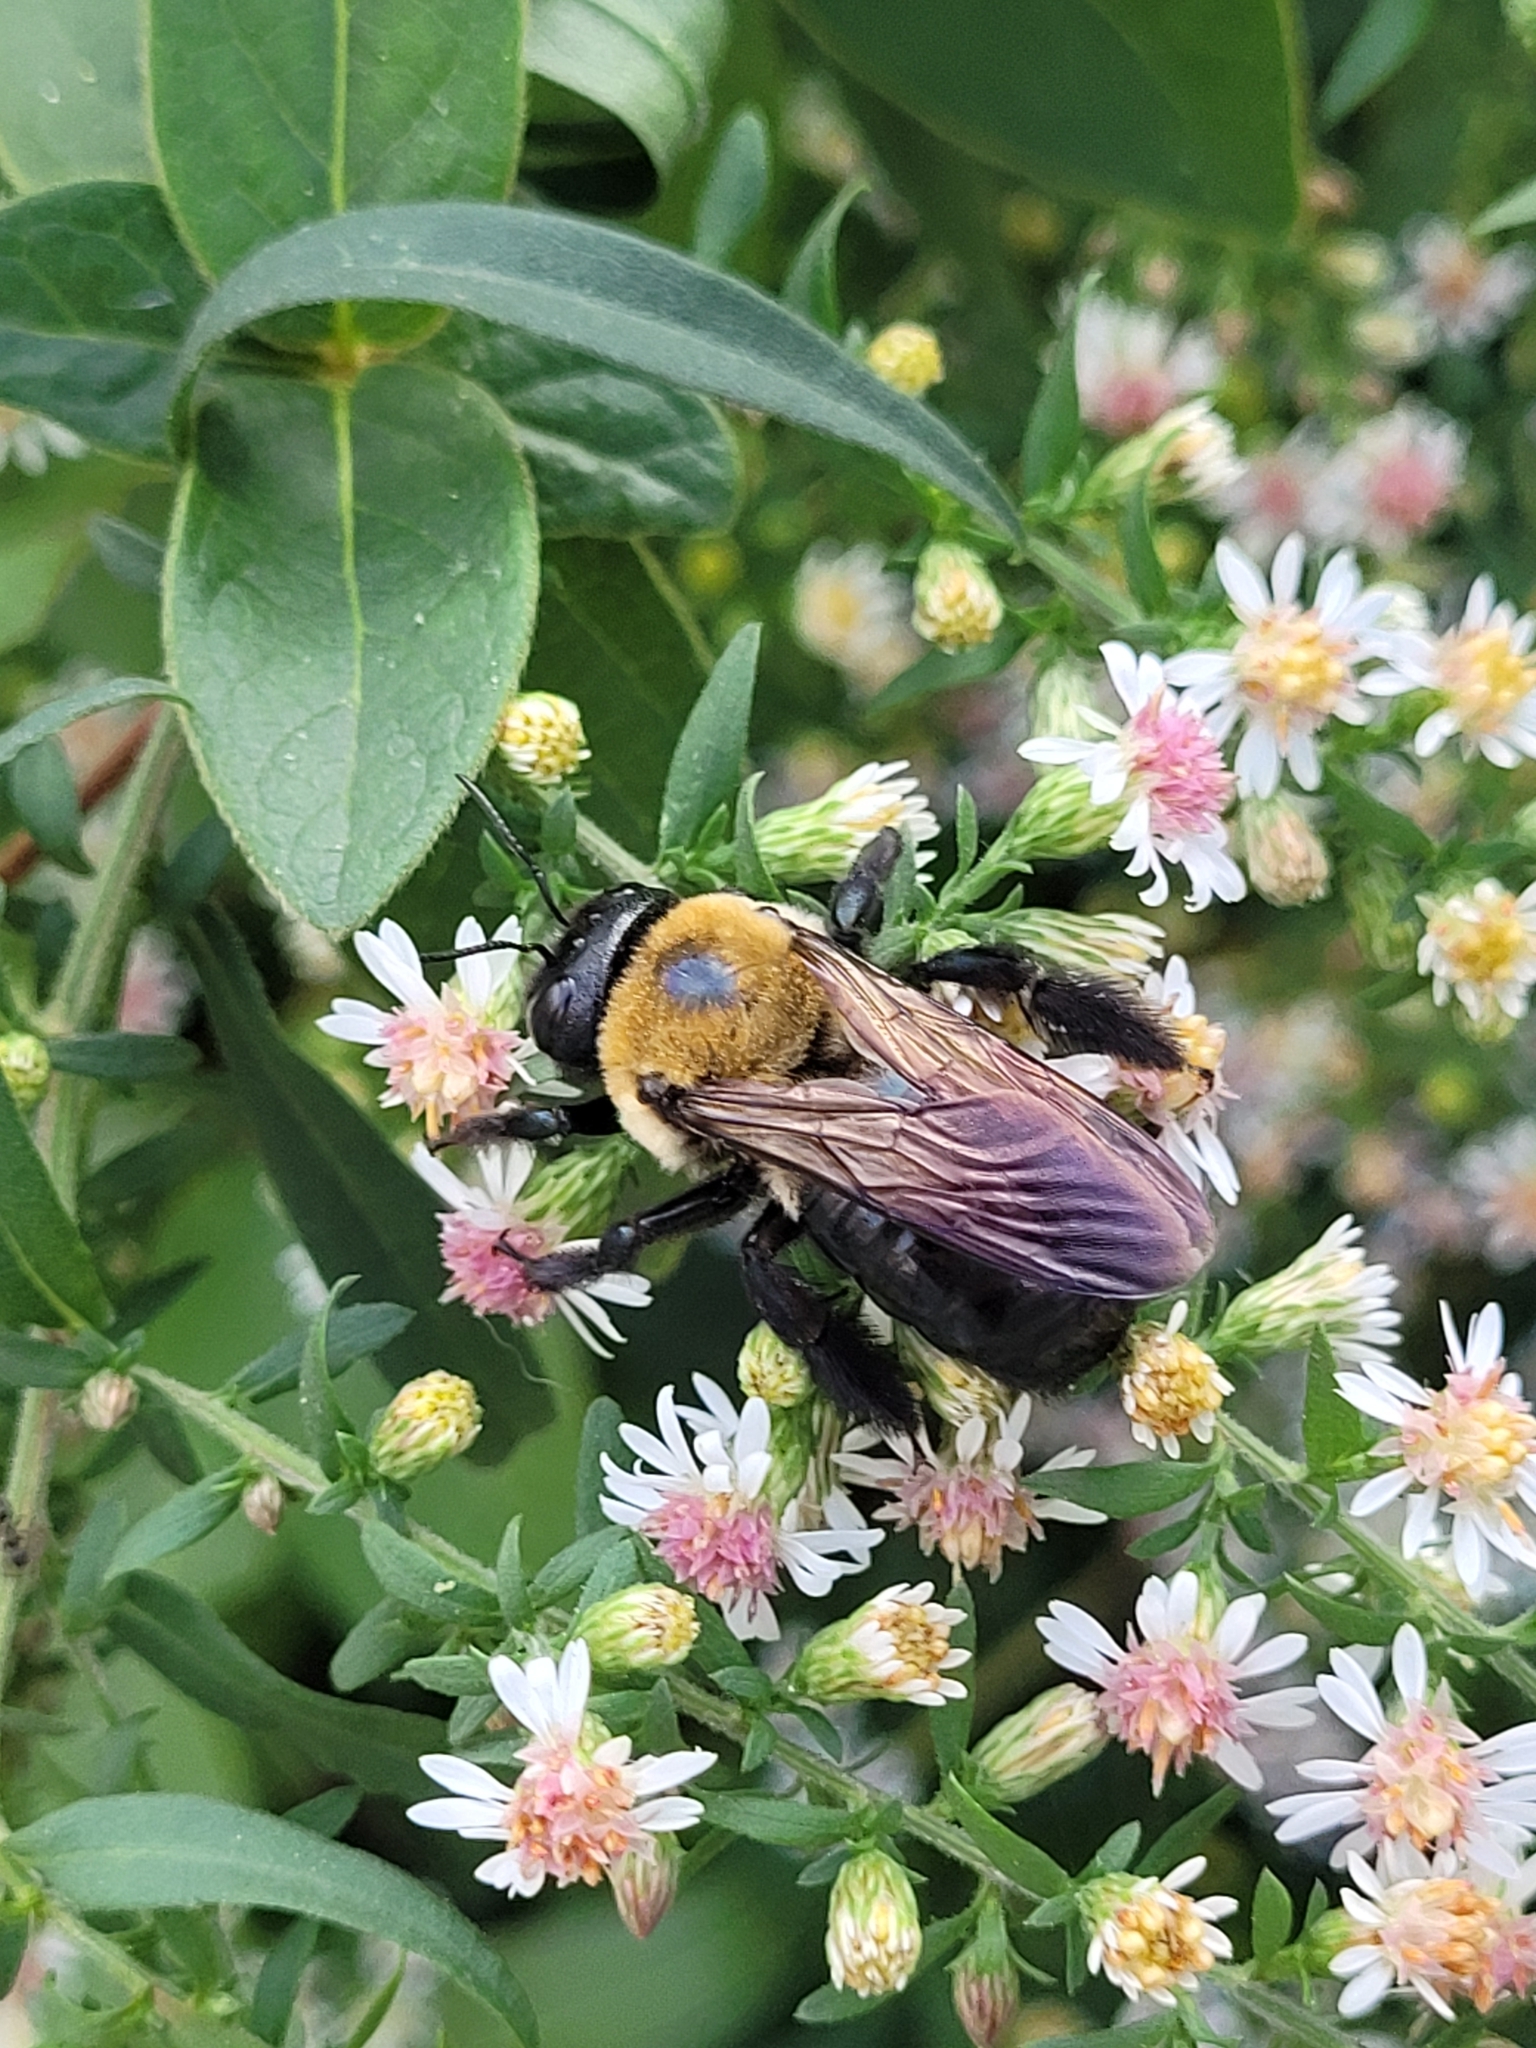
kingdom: Animalia
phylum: Arthropoda
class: Insecta
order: Hymenoptera
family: Apidae
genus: Xylocopa
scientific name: Xylocopa virginica
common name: Carpenter bee
